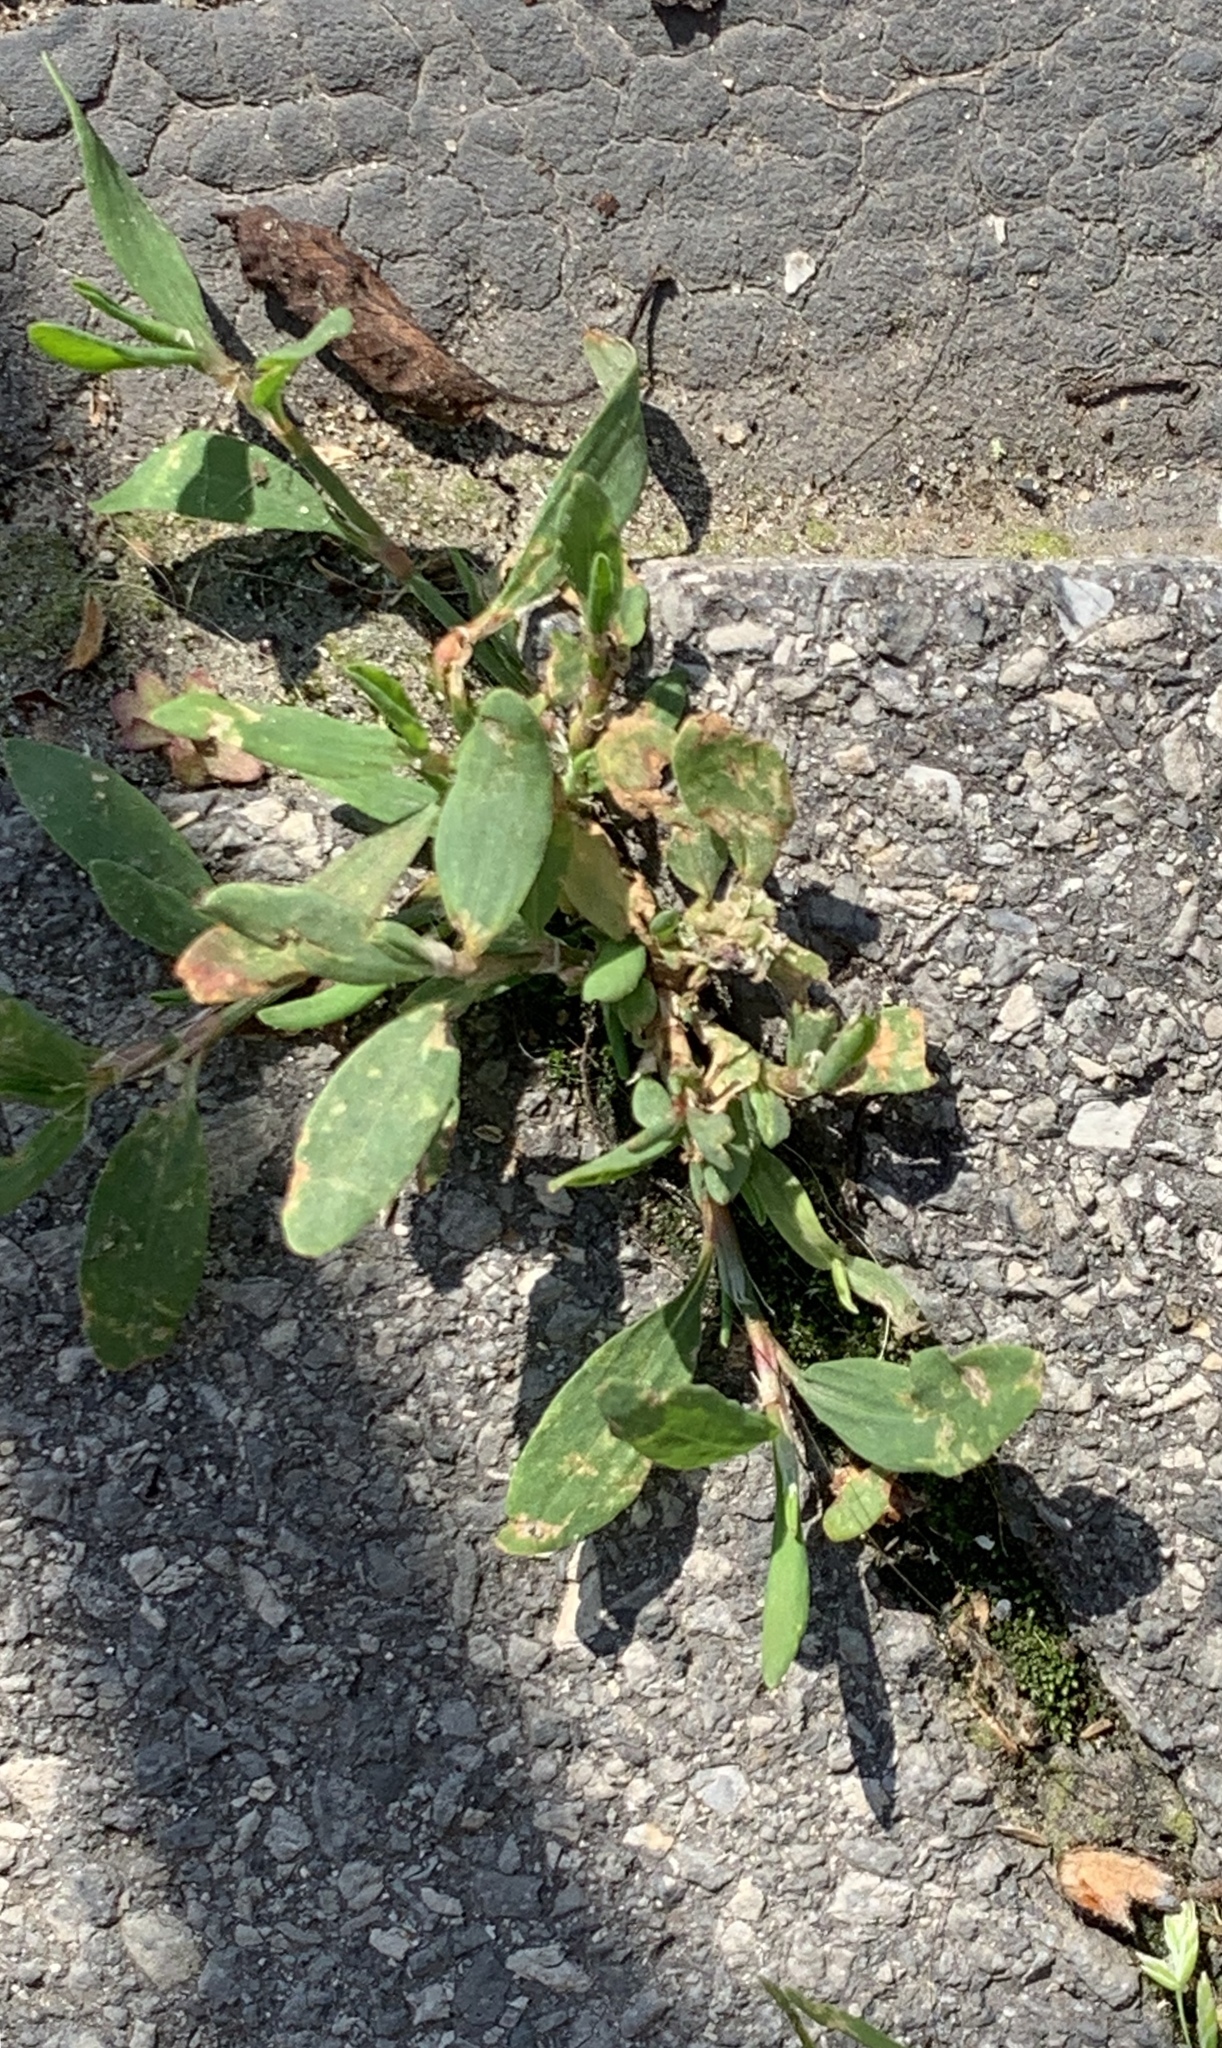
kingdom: Plantae
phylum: Tracheophyta
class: Magnoliopsida
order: Caryophyllales
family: Polygonaceae
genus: Polygonum
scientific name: Polygonum aviculare
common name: Prostrate knotweed
